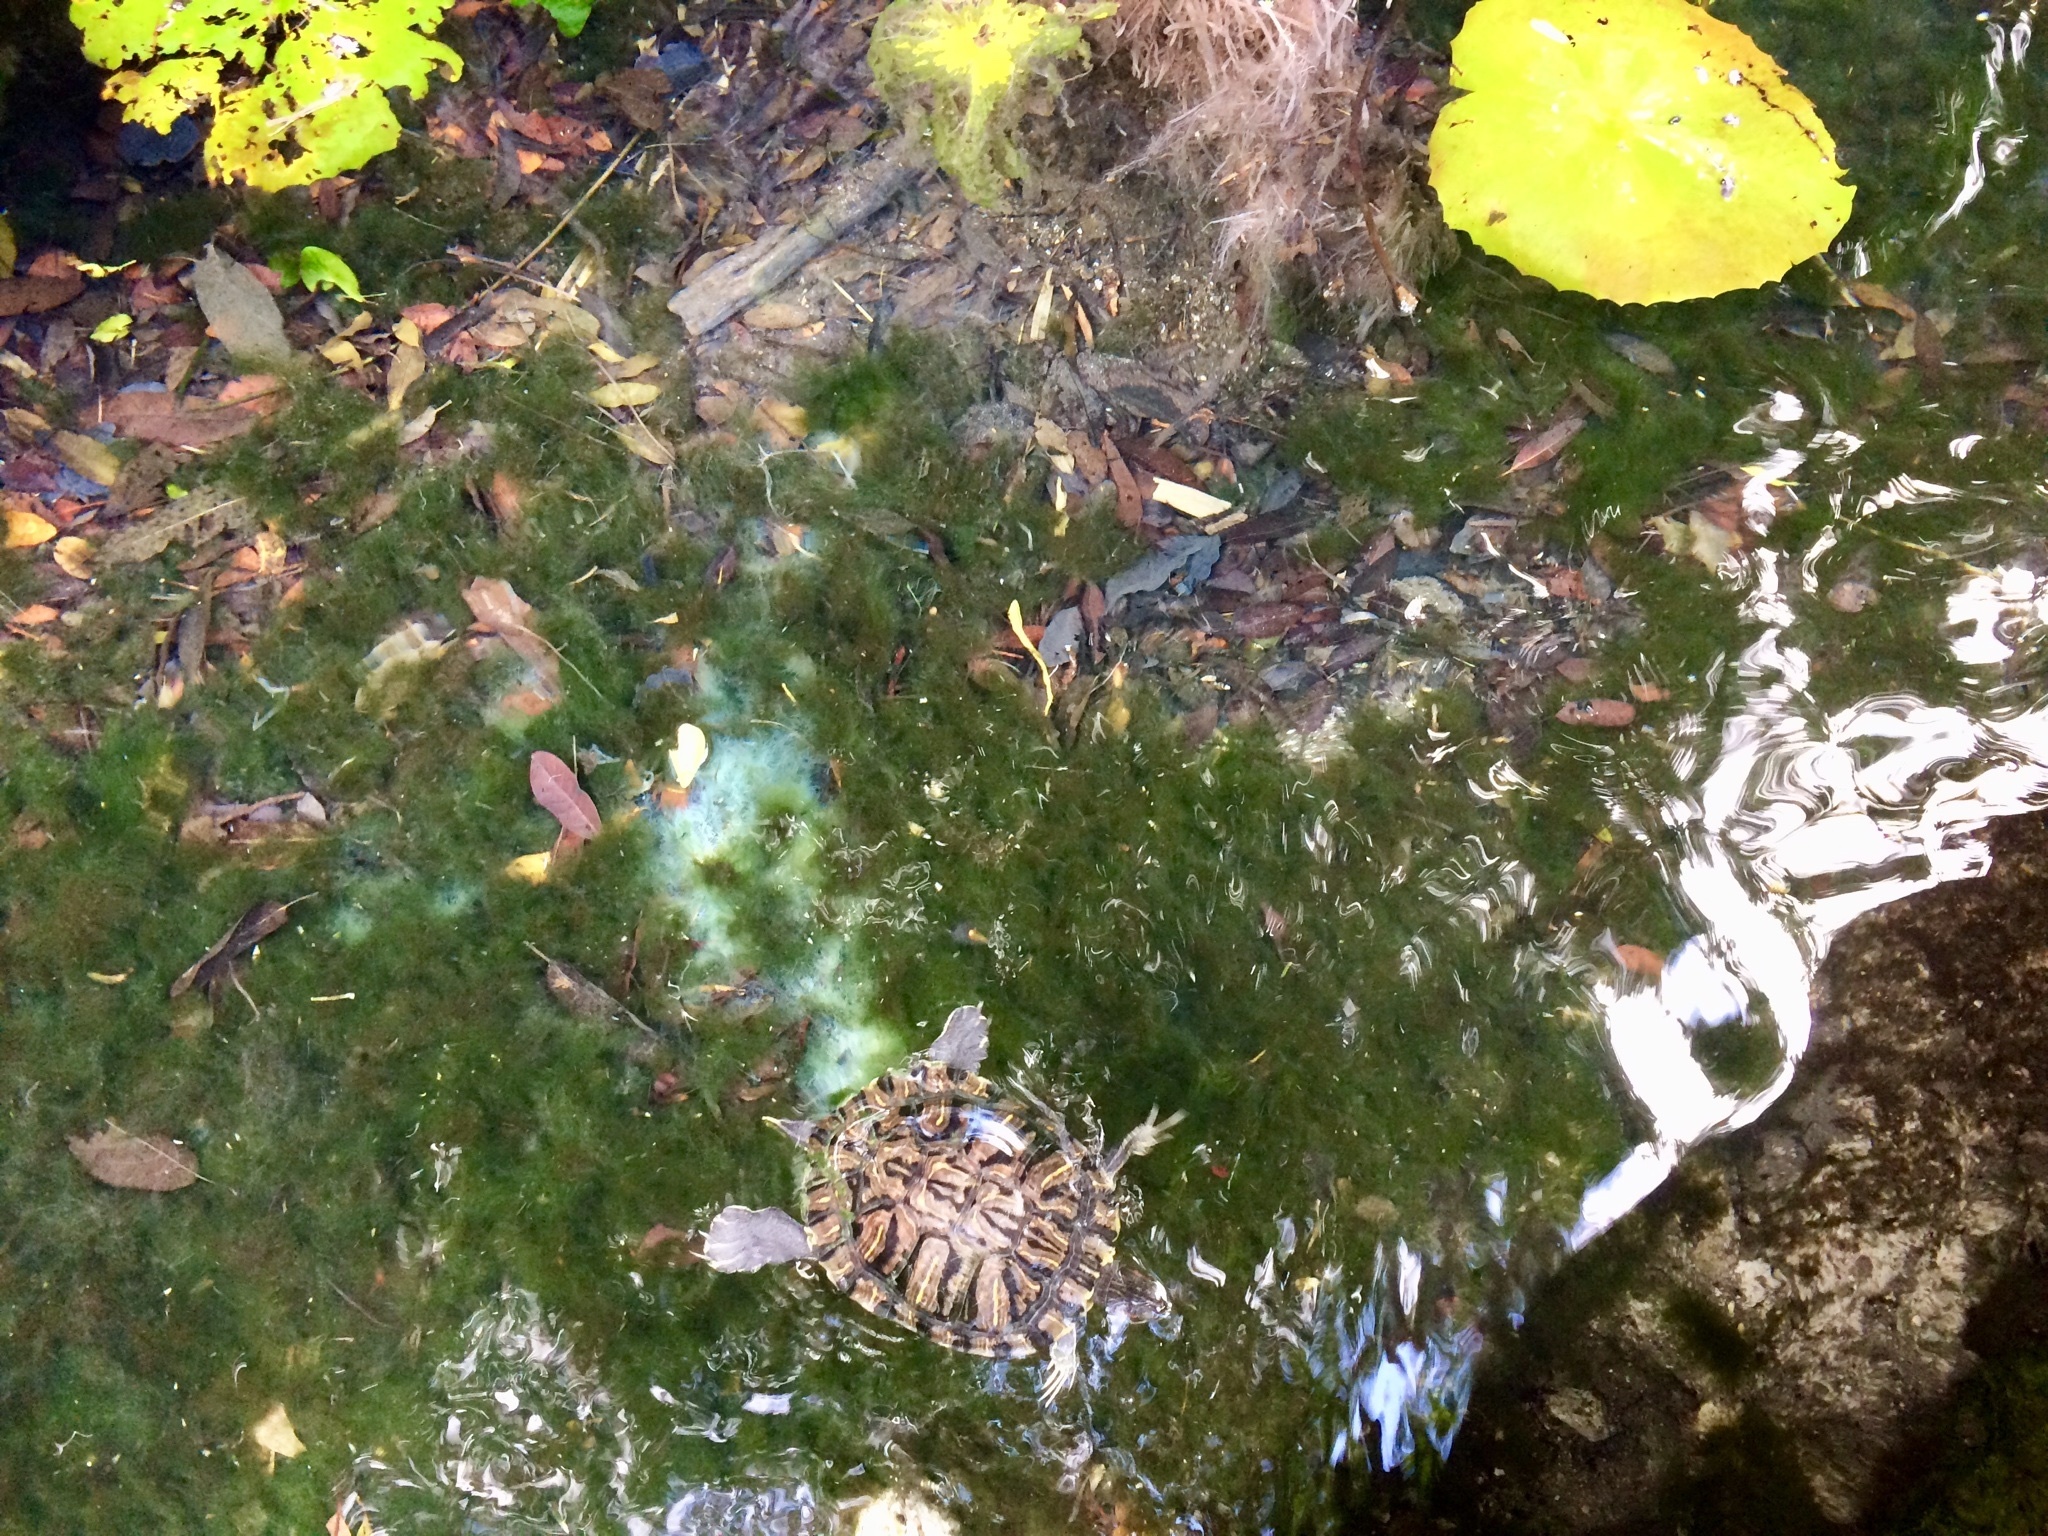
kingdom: Animalia
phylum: Chordata
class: Testudines
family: Emydidae
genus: Trachemys
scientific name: Trachemys scripta
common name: Slider
